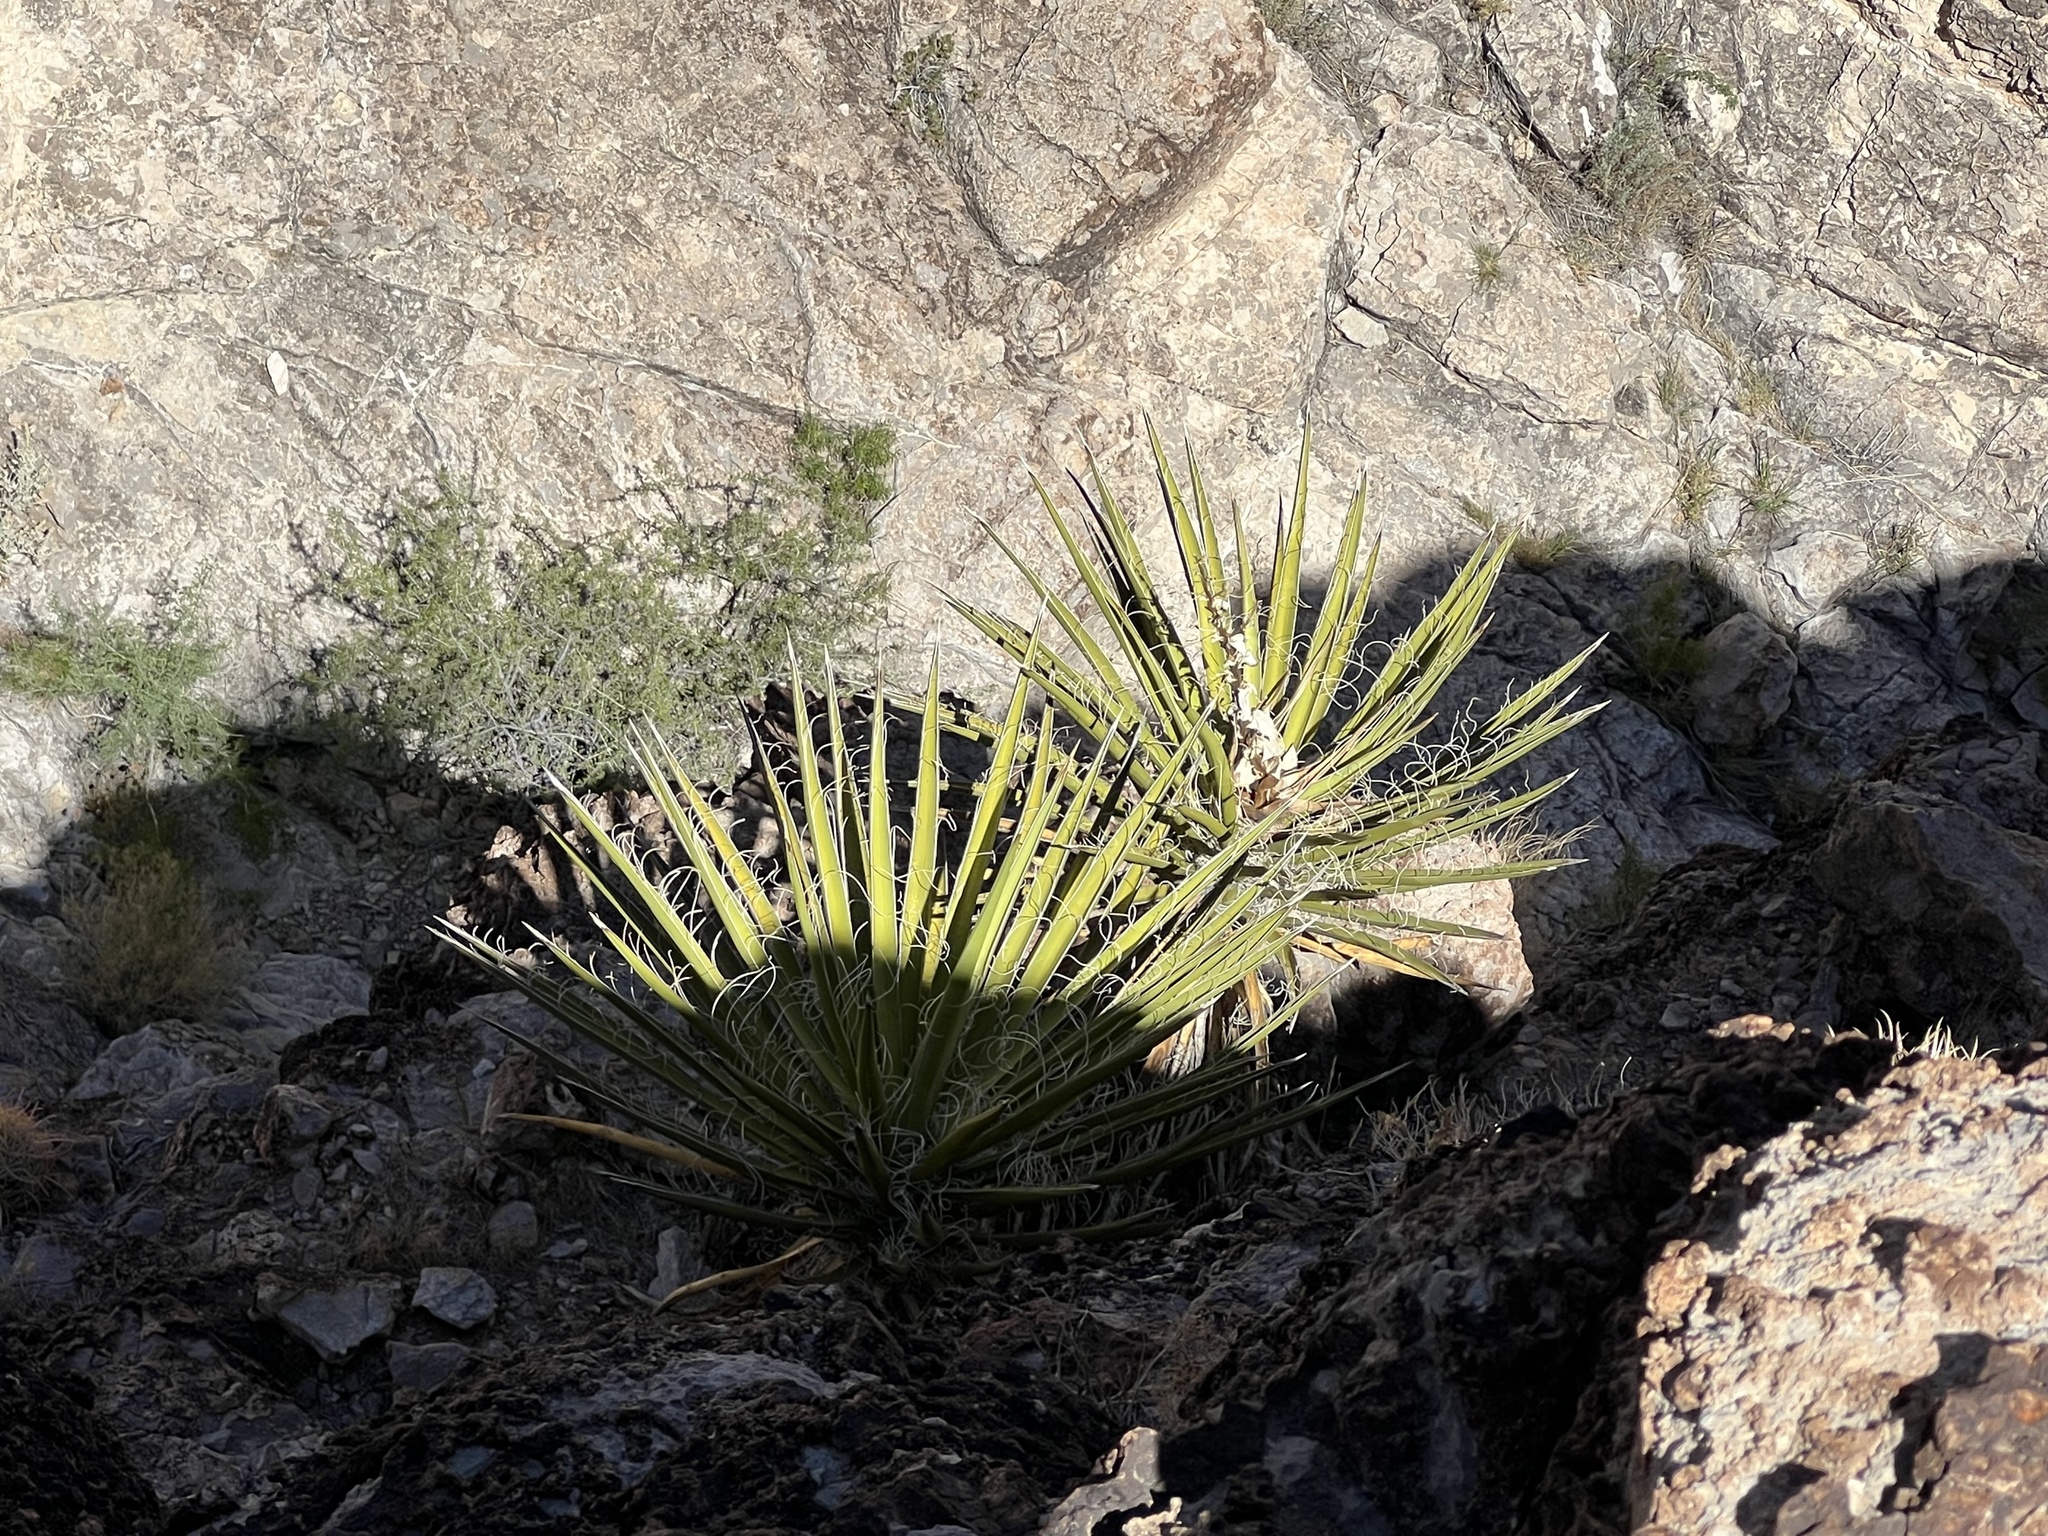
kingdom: Plantae
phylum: Tracheophyta
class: Liliopsida
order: Asparagales
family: Asparagaceae
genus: Yucca
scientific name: Yucca schidigera
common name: Mojave yucca
